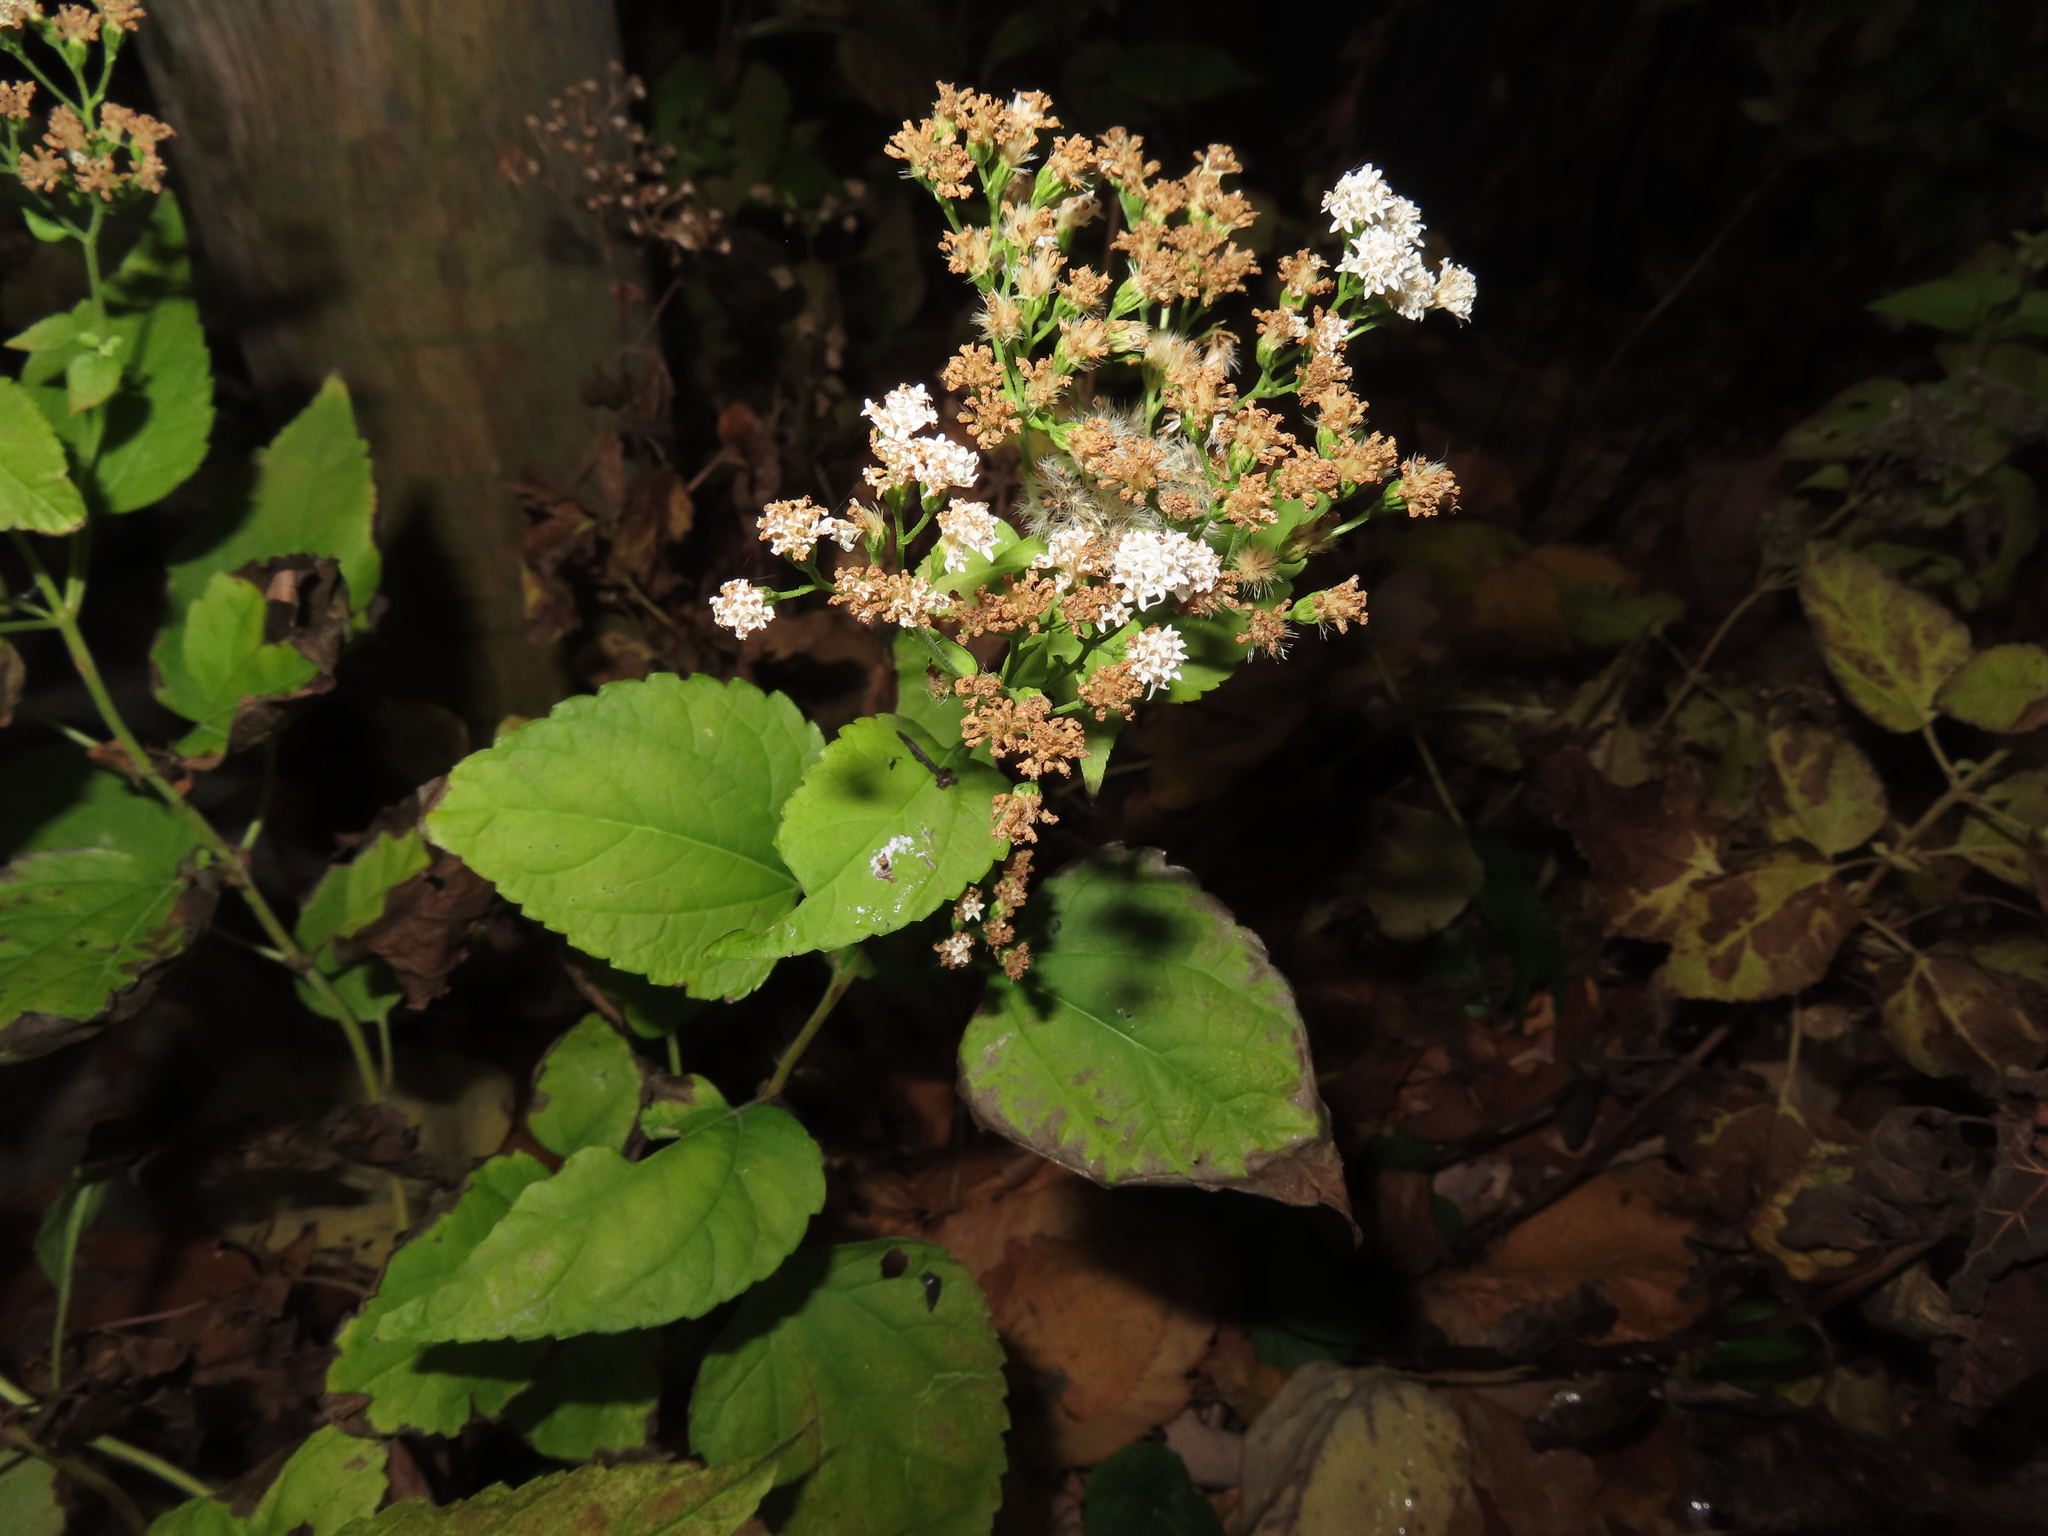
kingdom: Plantae
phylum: Tracheophyta
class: Magnoliopsida
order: Asterales
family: Asteraceae
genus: Ageratina
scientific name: Ageratina altissima
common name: White snakeroot
